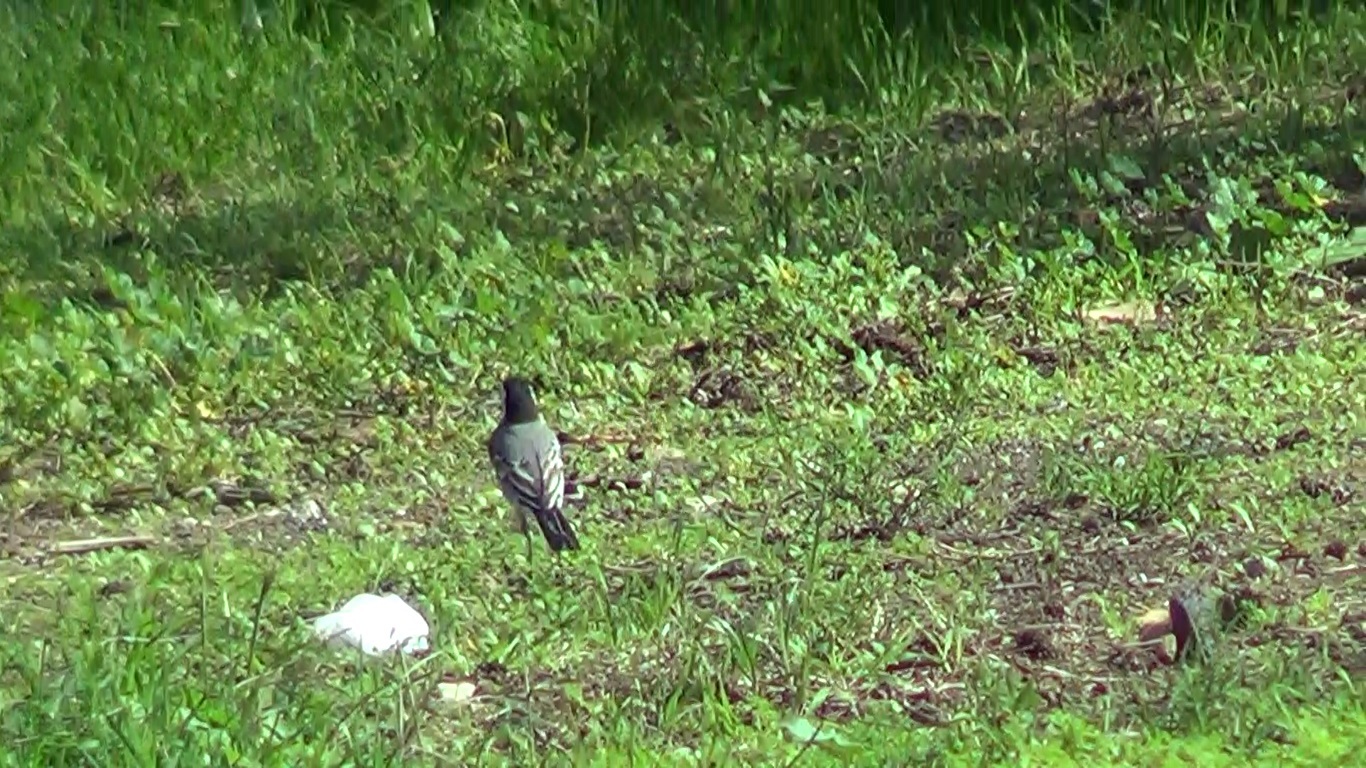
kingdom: Animalia
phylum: Chordata
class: Aves
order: Passeriformes
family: Motacillidae
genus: Motacilla
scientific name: Motacilla alba
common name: White wagtail
